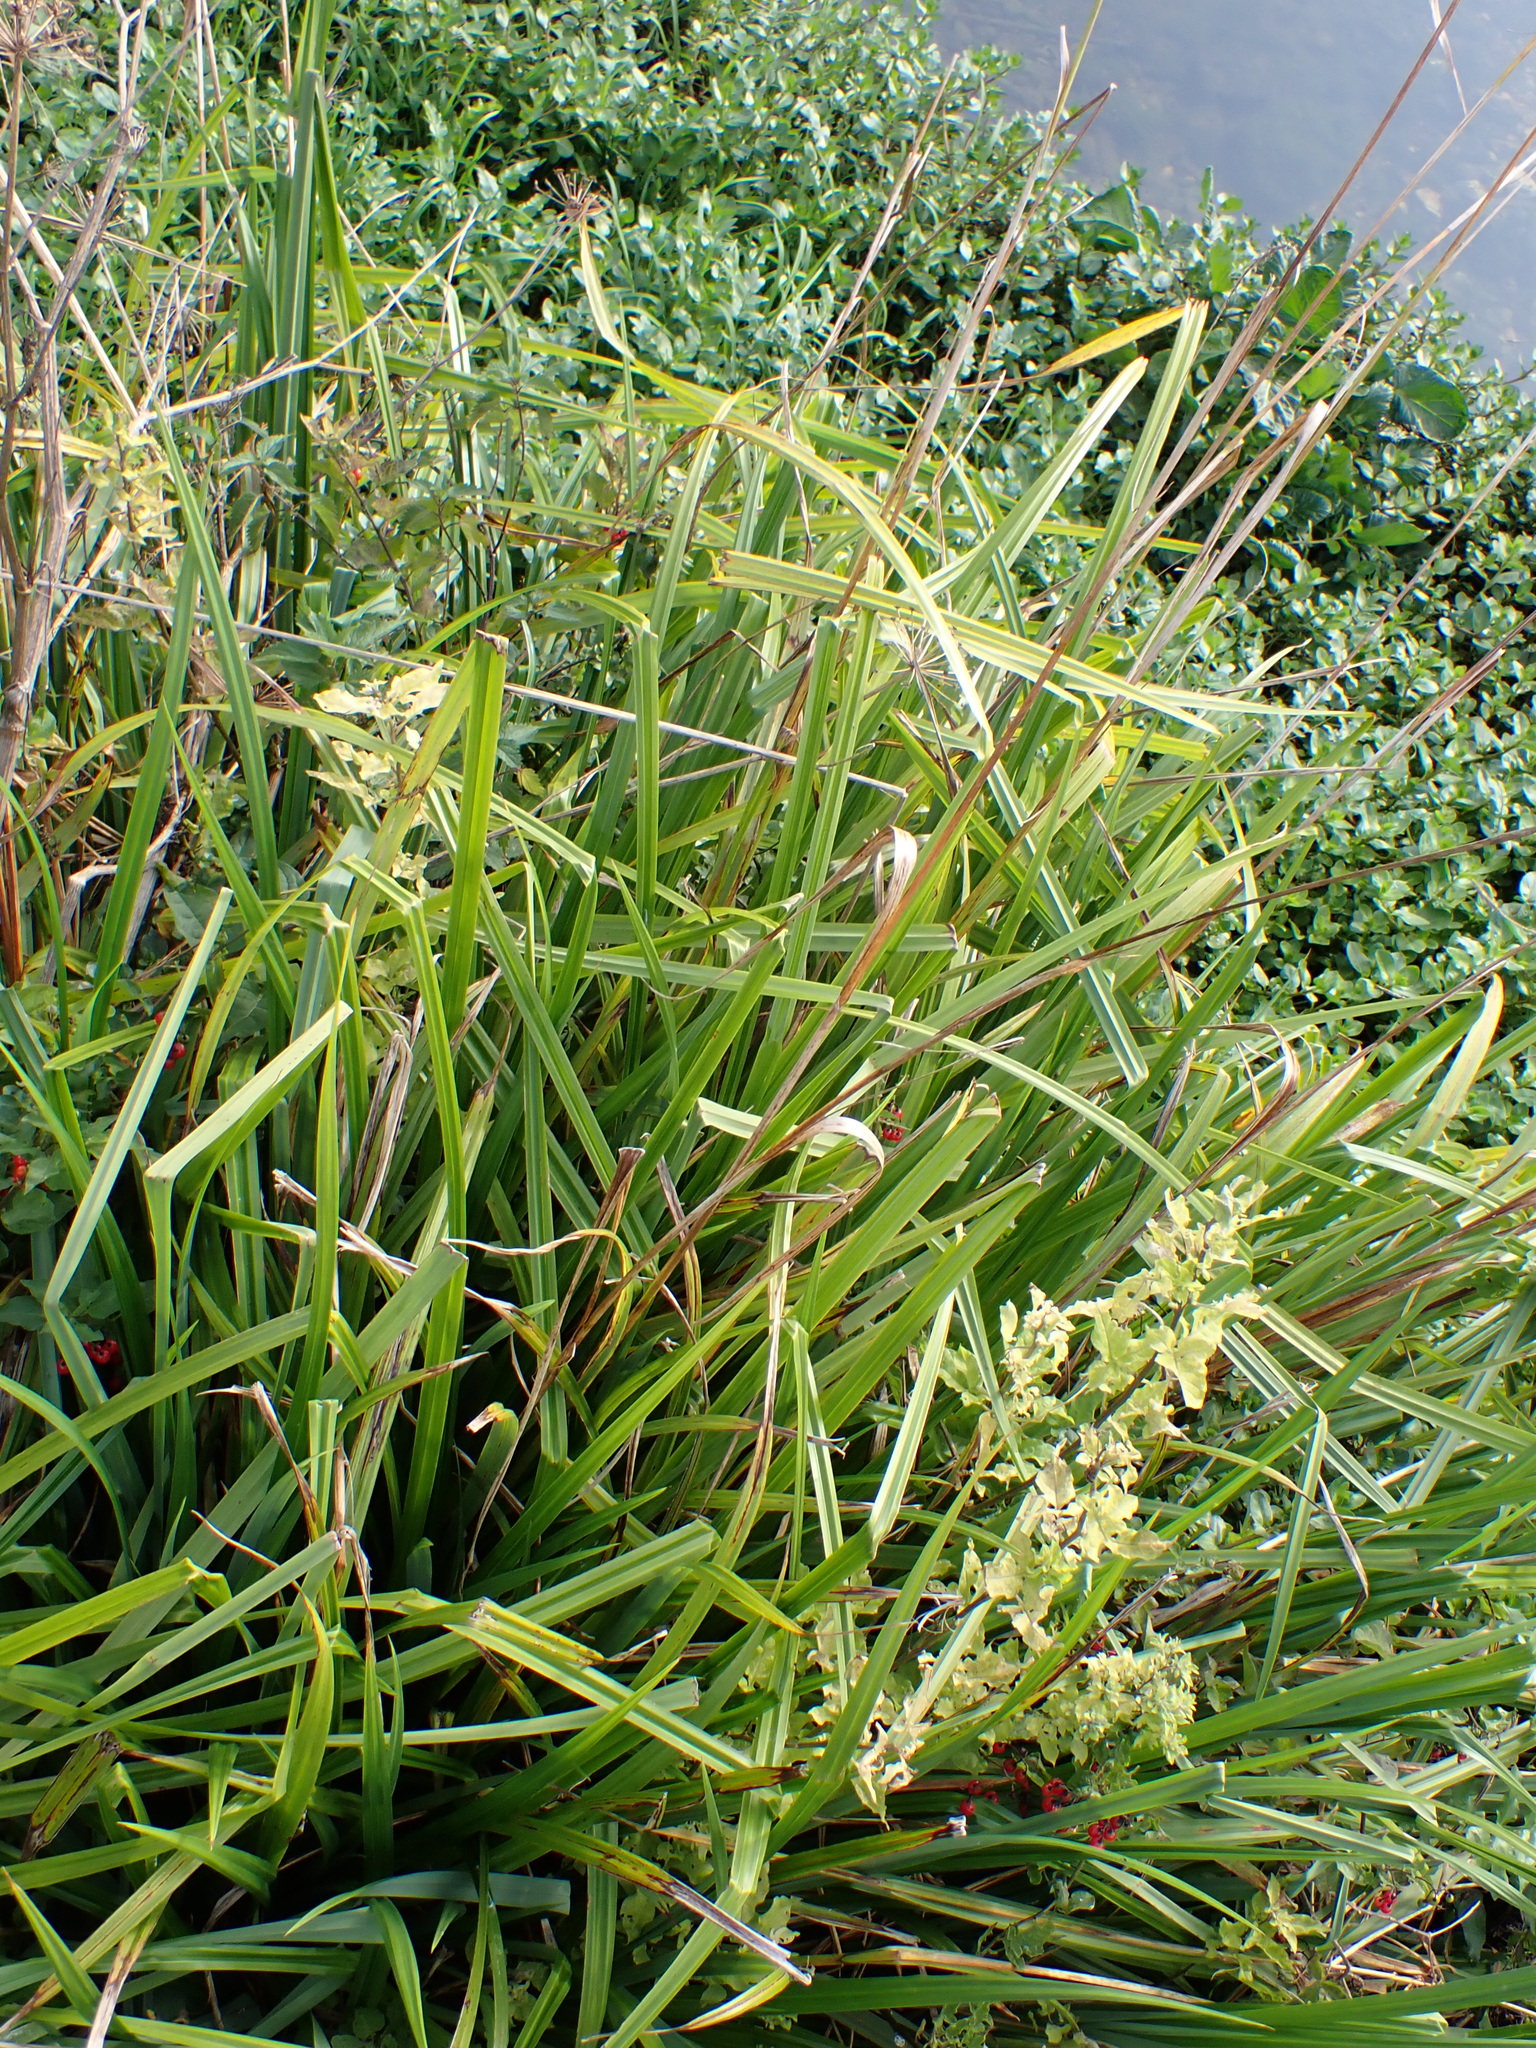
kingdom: Plantae
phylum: Tracheophyta
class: Liliopsida
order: Poales
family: Cyperaceae
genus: Carex
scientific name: Carex pendula
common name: Pendulous sedge
